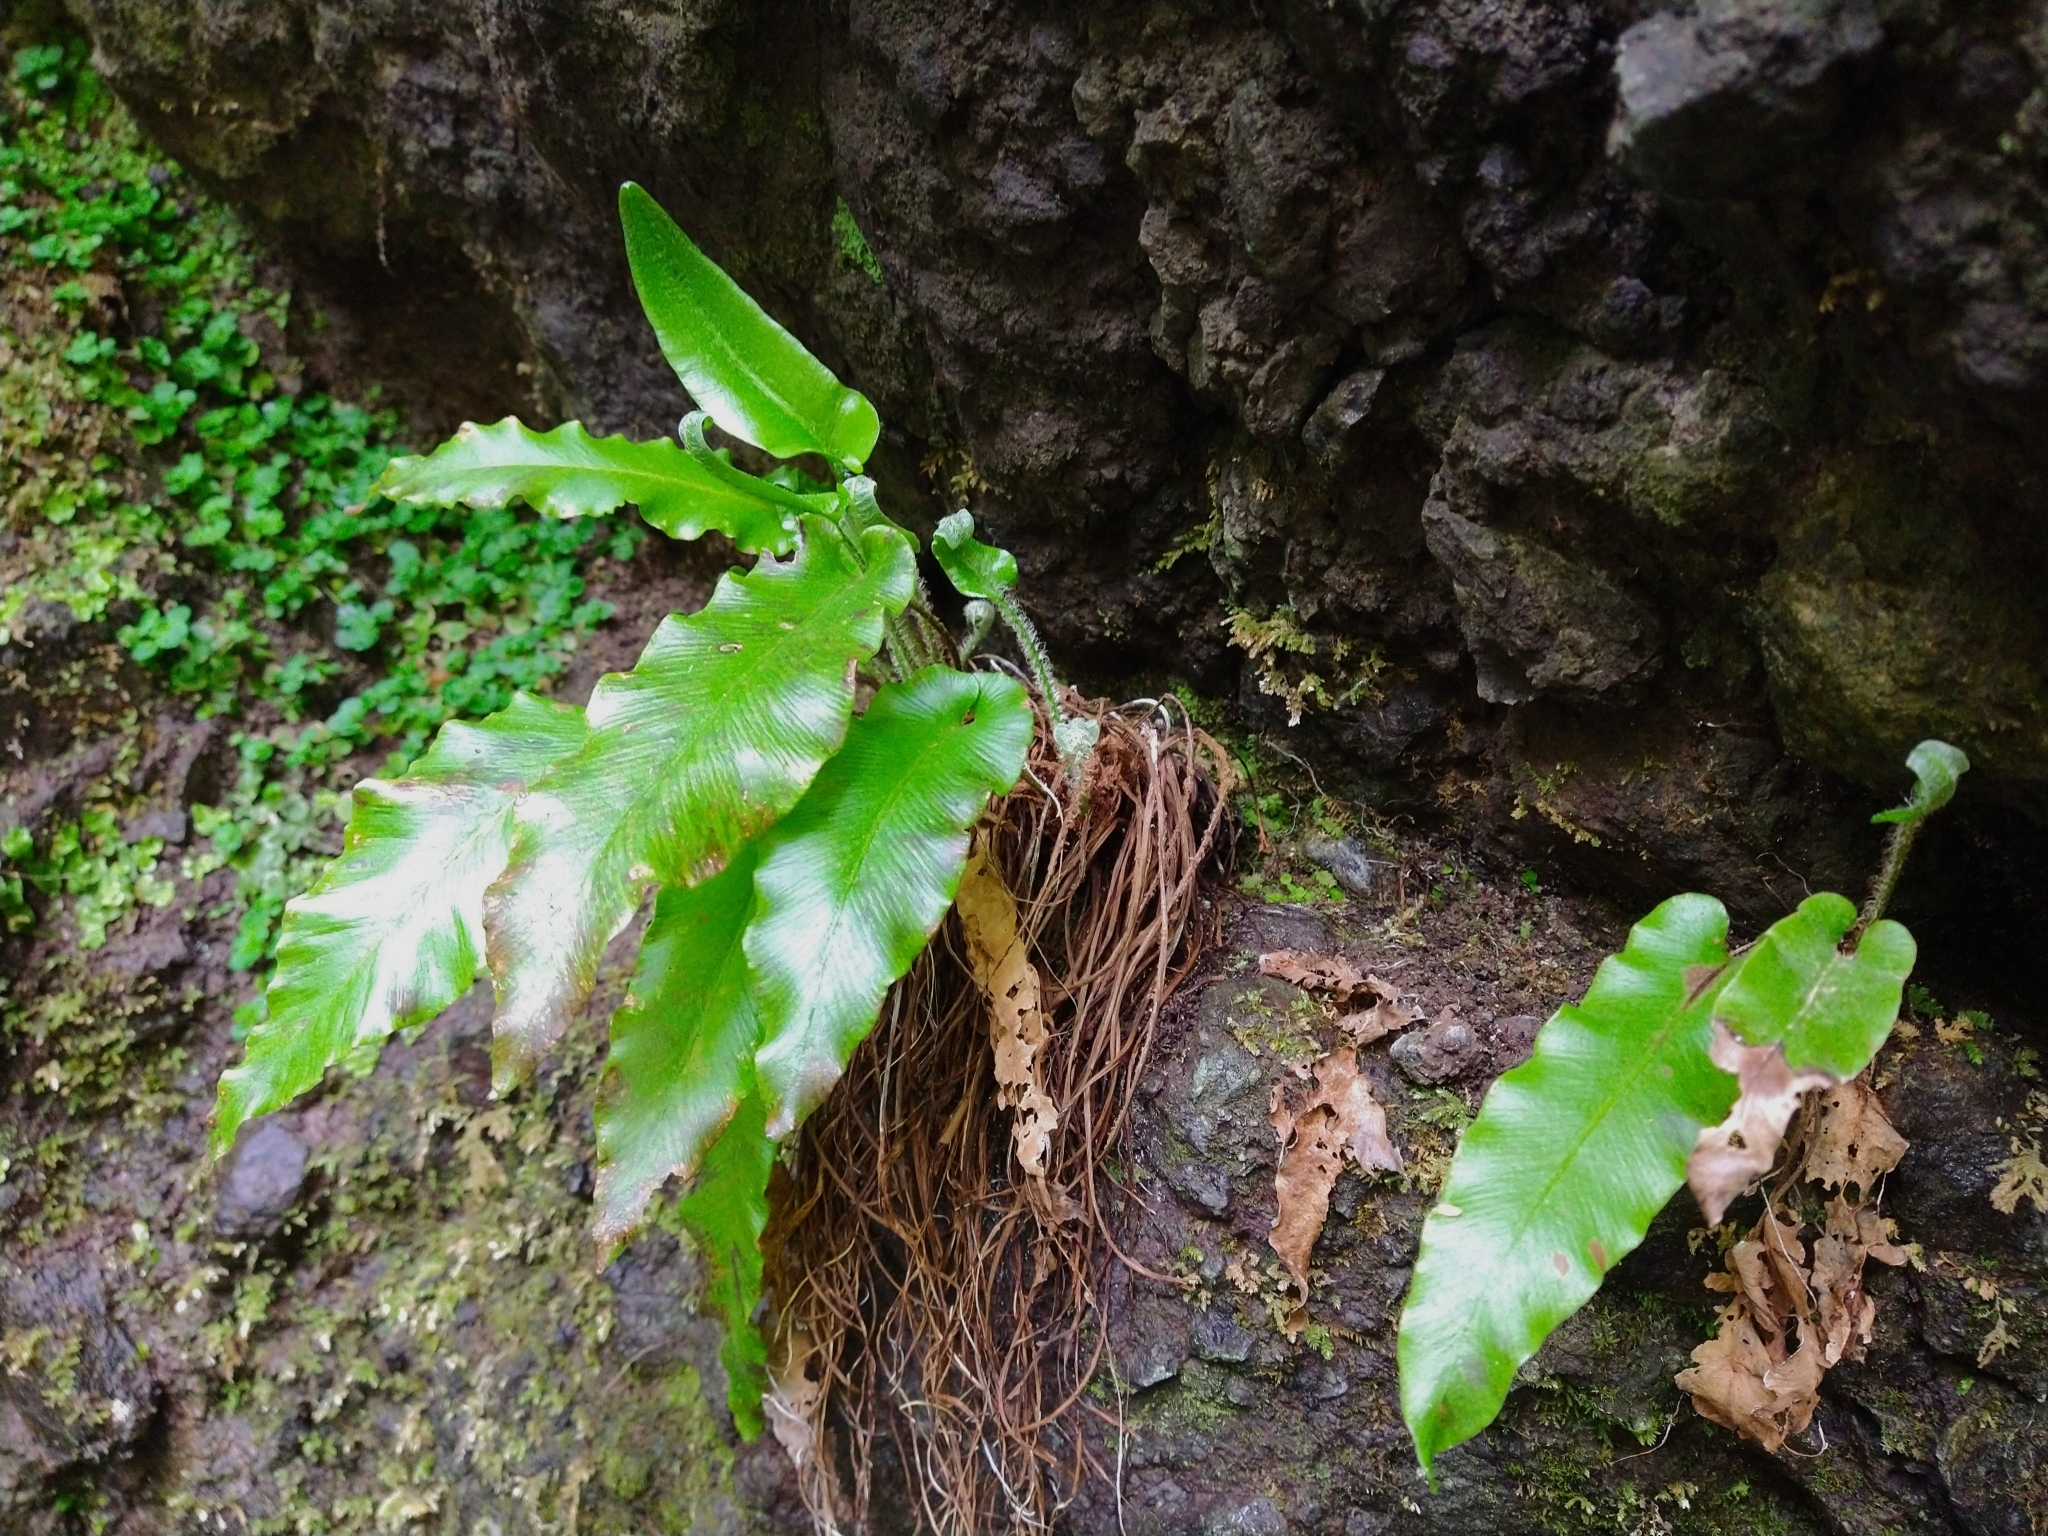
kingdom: Plantae
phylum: Tracheophyta
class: Polypodiopsida
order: Polypodiales
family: Aspleniaceae
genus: Asplenium
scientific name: Asplenium scolopendrium
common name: Hart's-tongue fern
